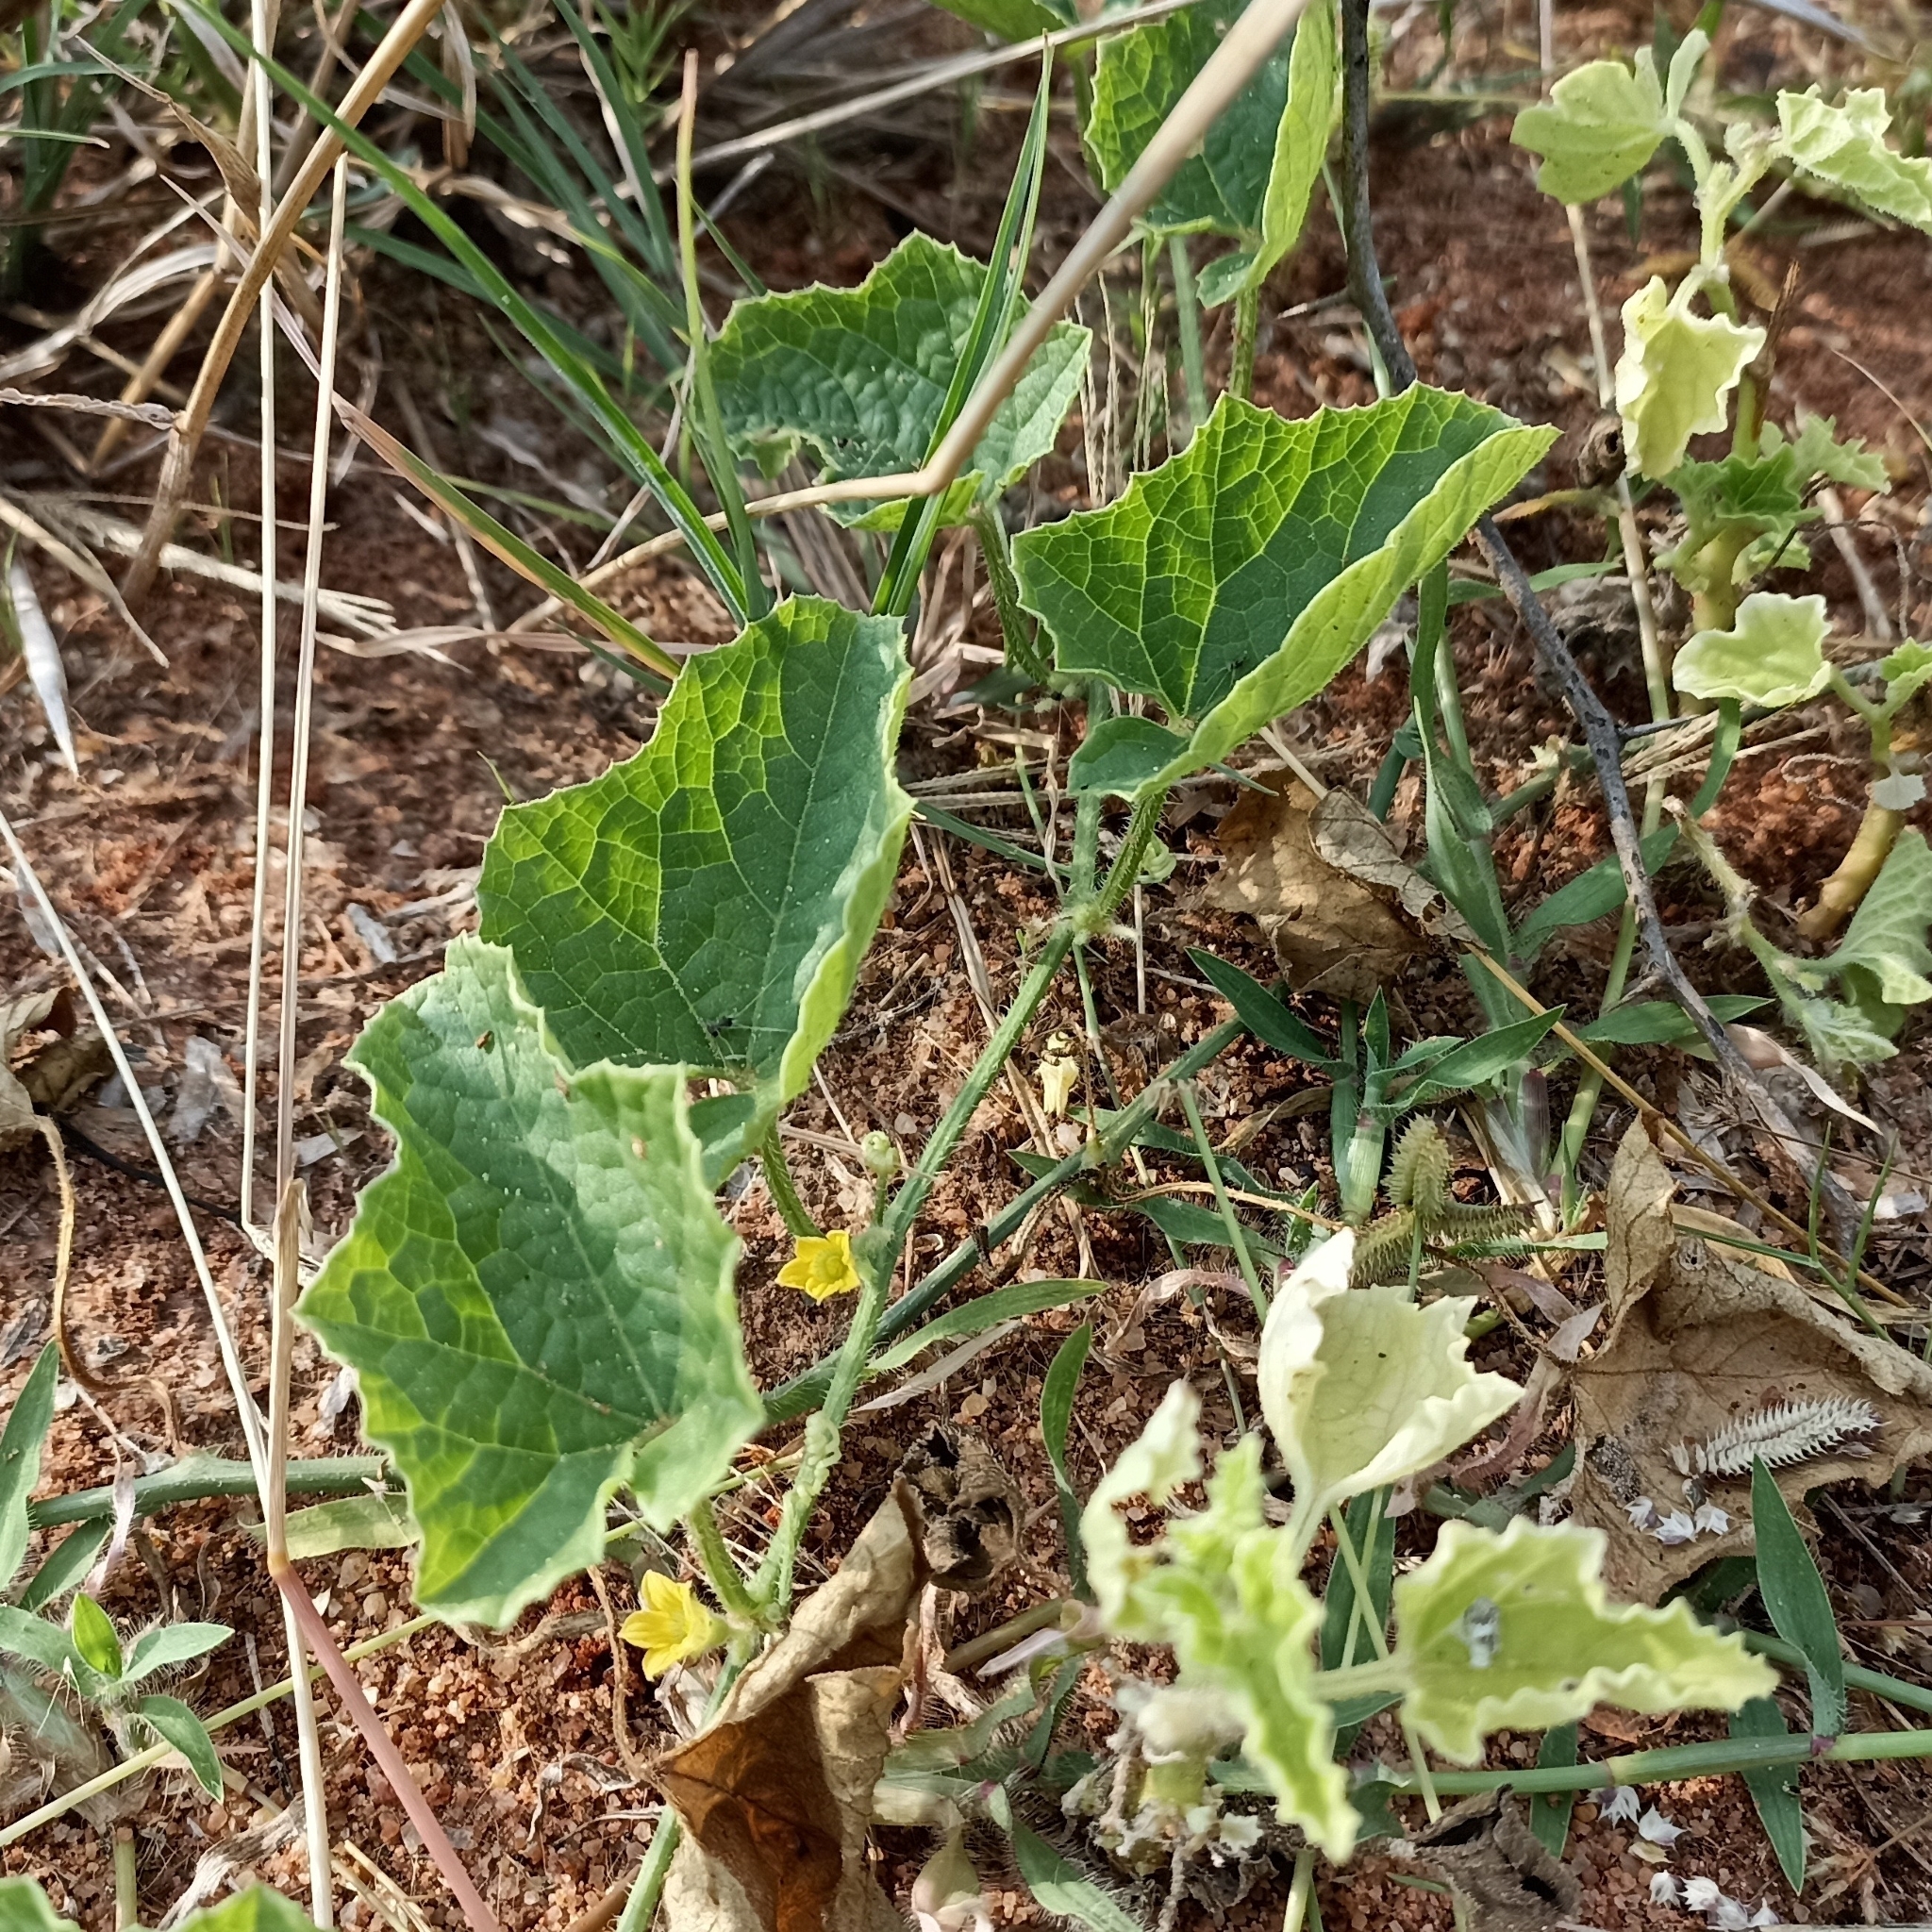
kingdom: Plantae
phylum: Tracheophyta
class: Magnoliopsida
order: Cucurbitales
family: Cucurbitaceae
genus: Cucumis
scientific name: Cucumis melo
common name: Melon
